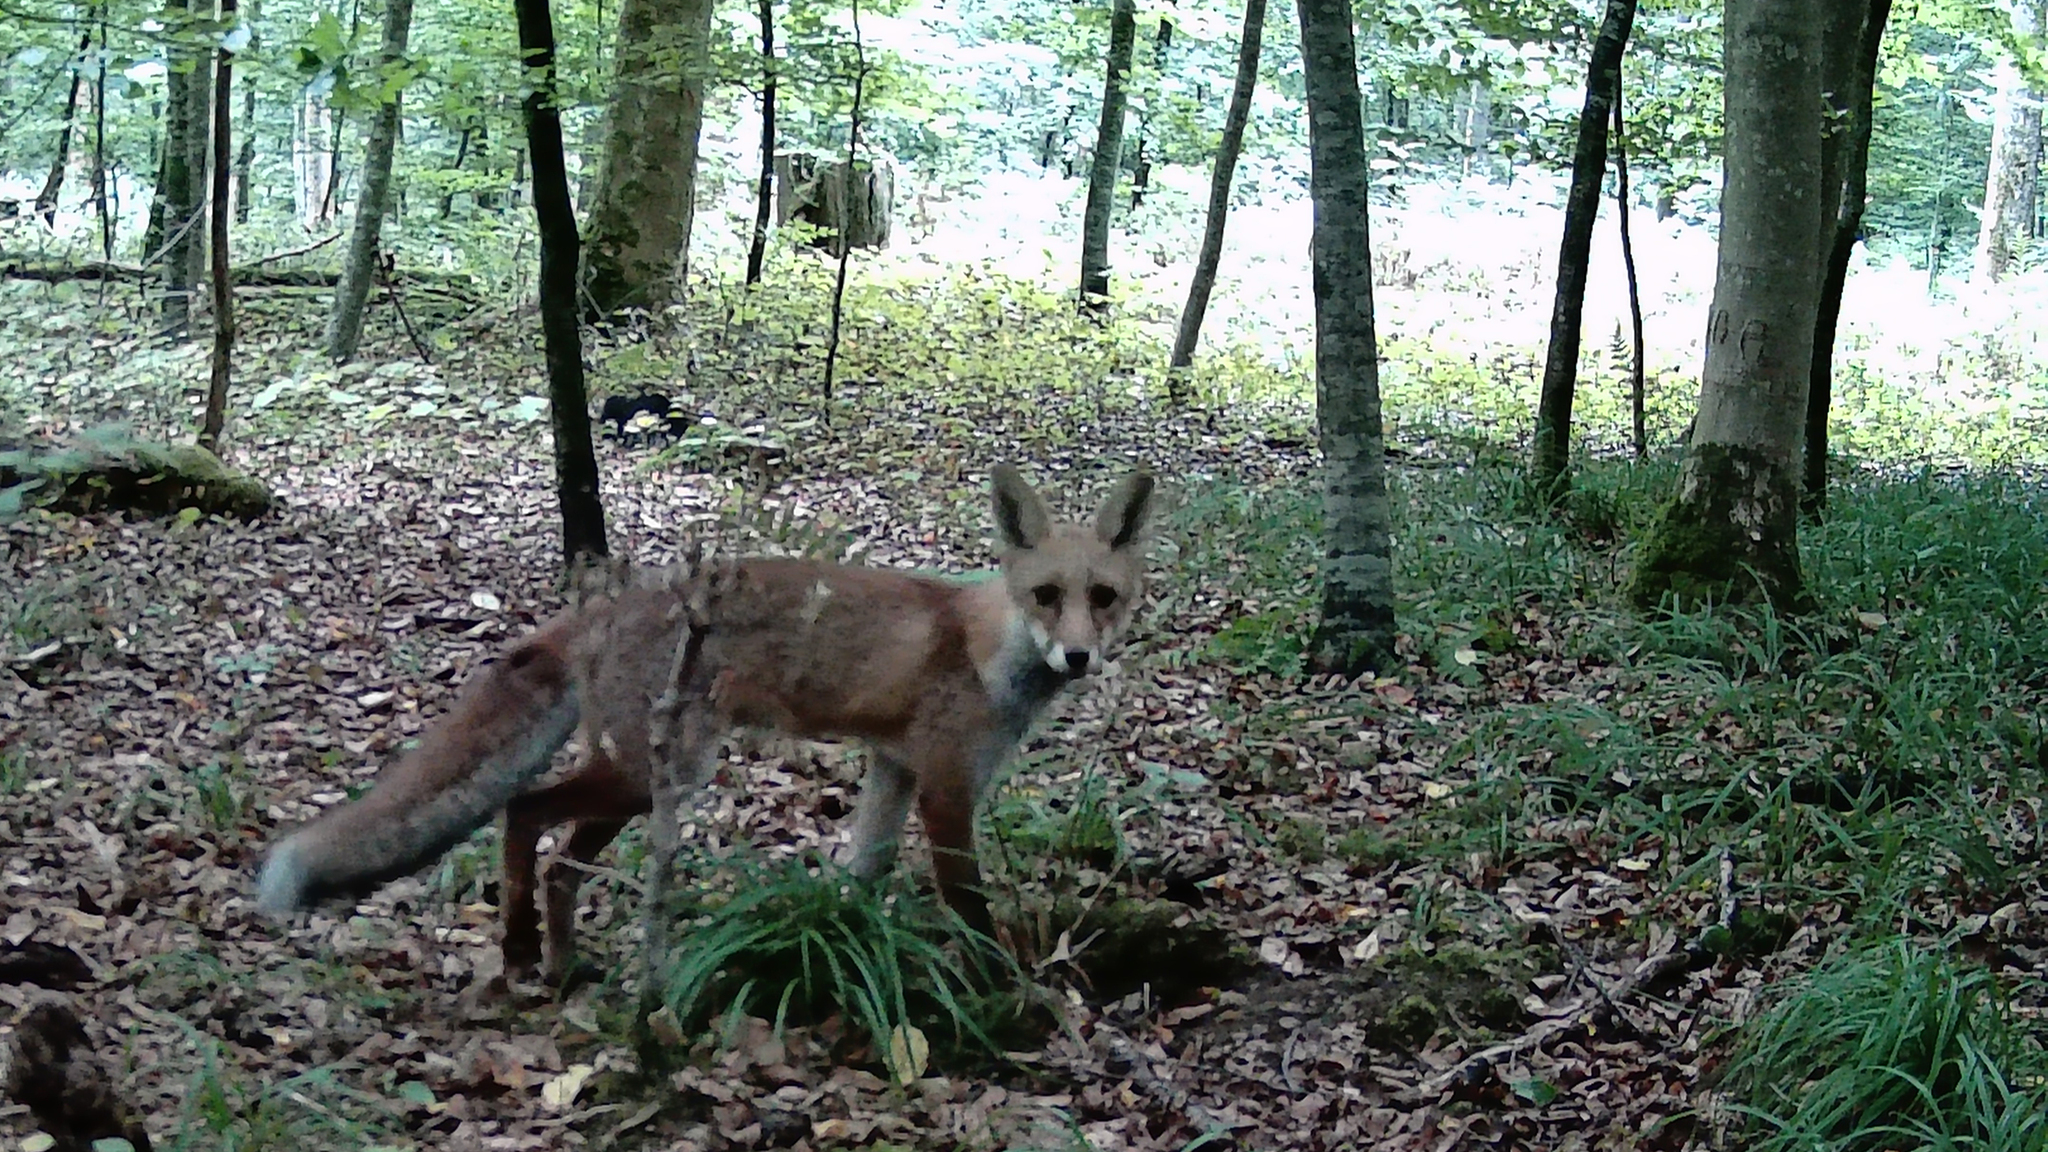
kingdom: Animalia
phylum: Chordata
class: Mammalia
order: Carnivora
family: Canidae
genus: Vulpes
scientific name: Vulpes vulpes
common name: Red fox
